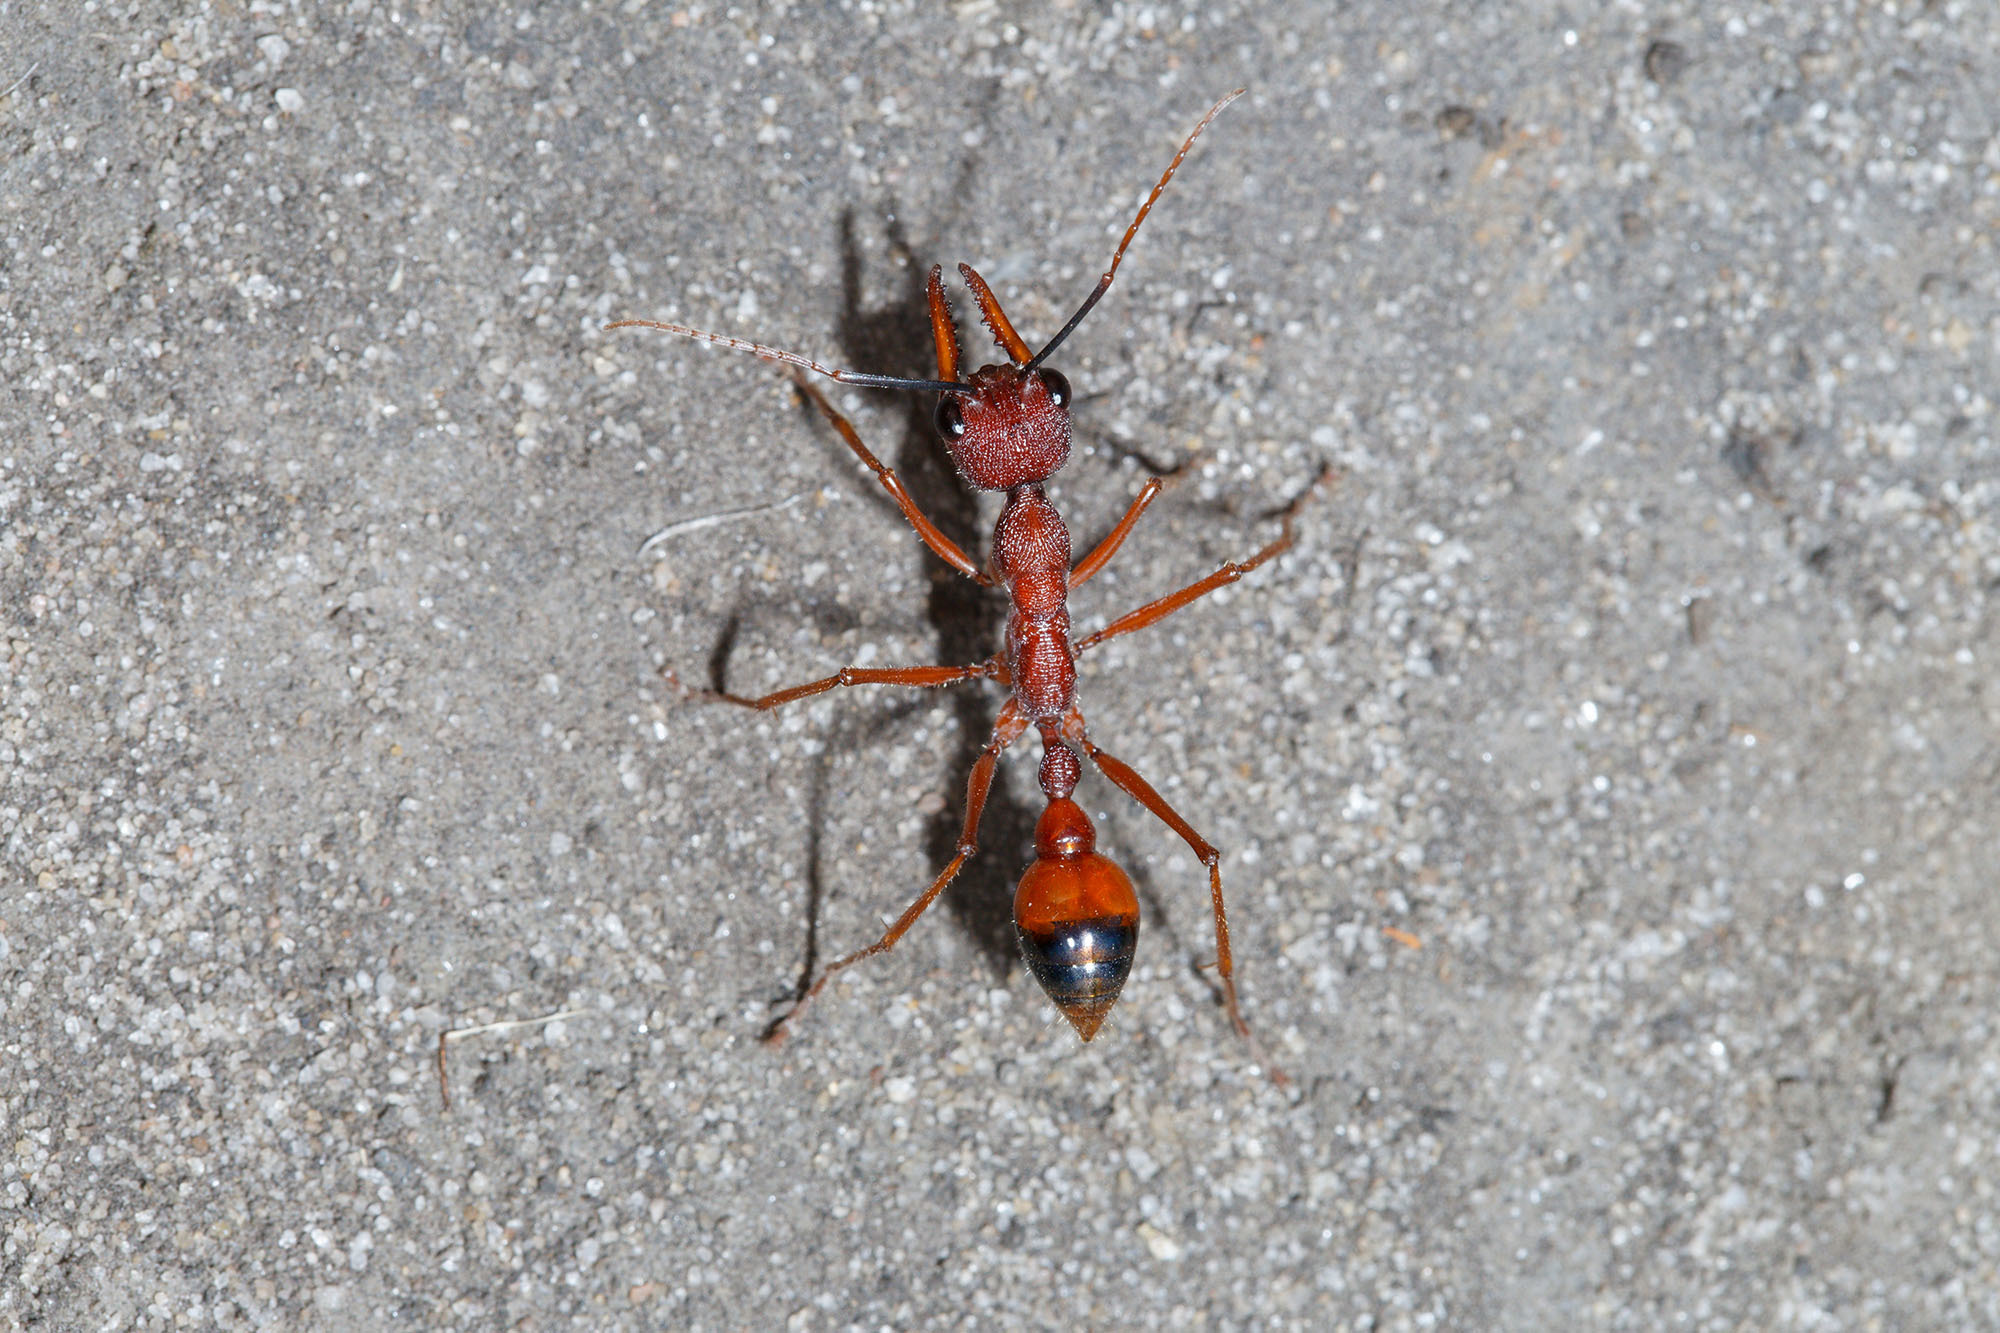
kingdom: Animalia
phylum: Arthropoda
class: Insecta
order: Hymenoptera
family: Formicidae
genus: Myrmecia
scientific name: Myrmecia nigriscapa
